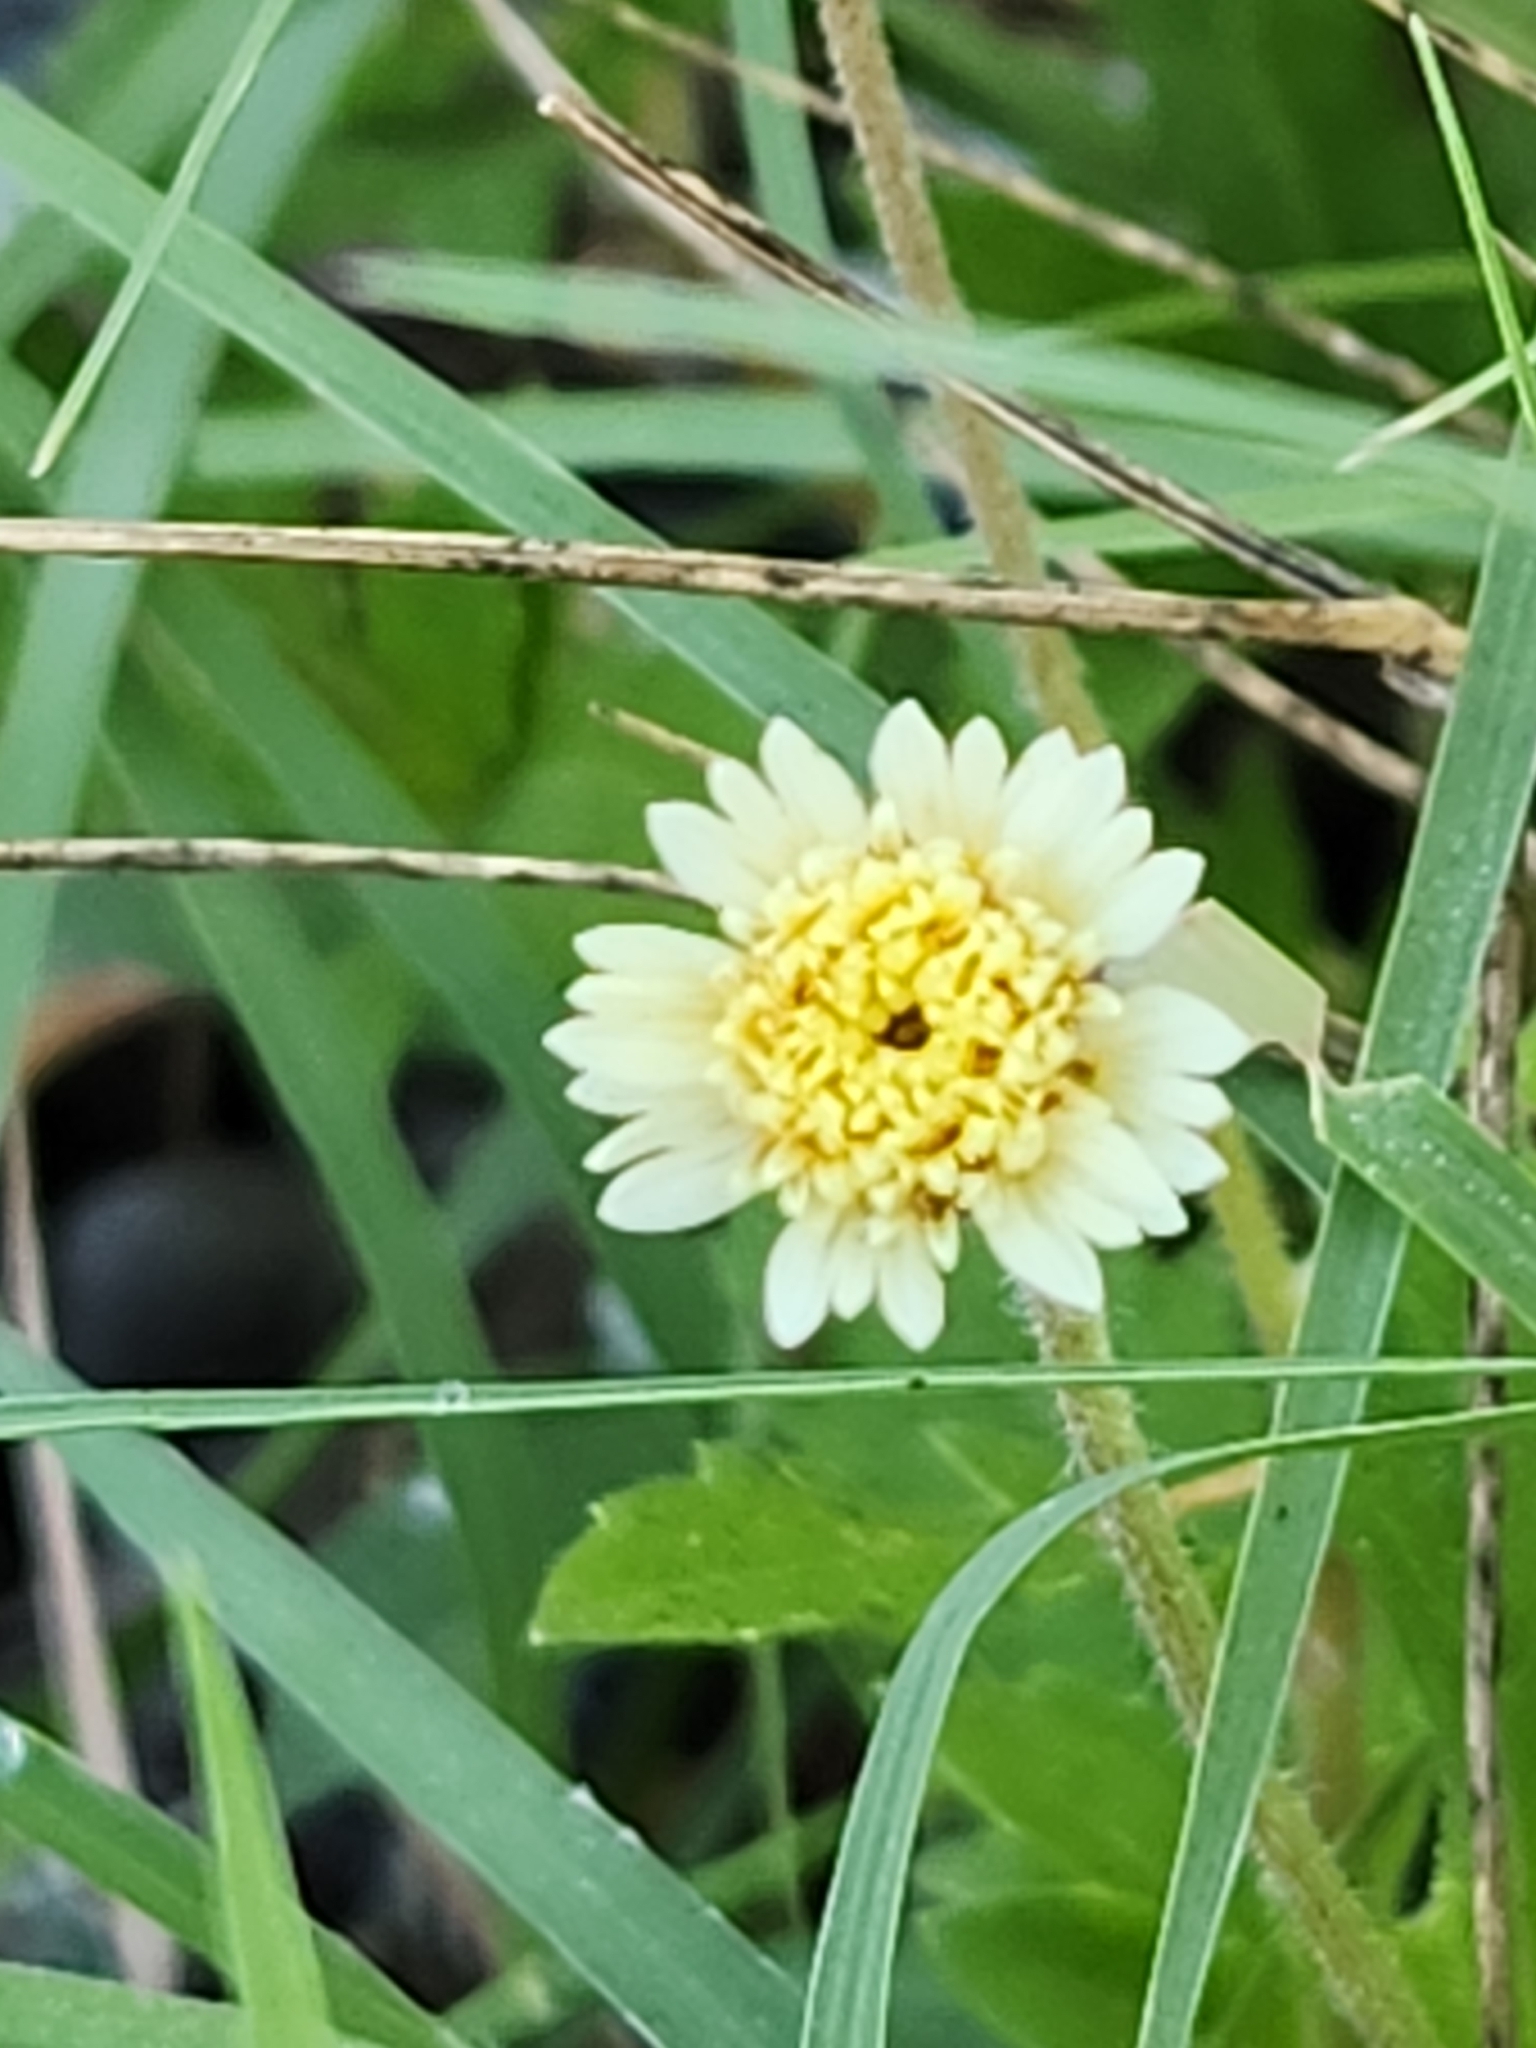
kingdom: Plantae
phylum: Tracheophyta
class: Magnoliopsida
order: Asterales
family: Asteraceae
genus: Tridax
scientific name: Tridax procumbens
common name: Coatbuttons
